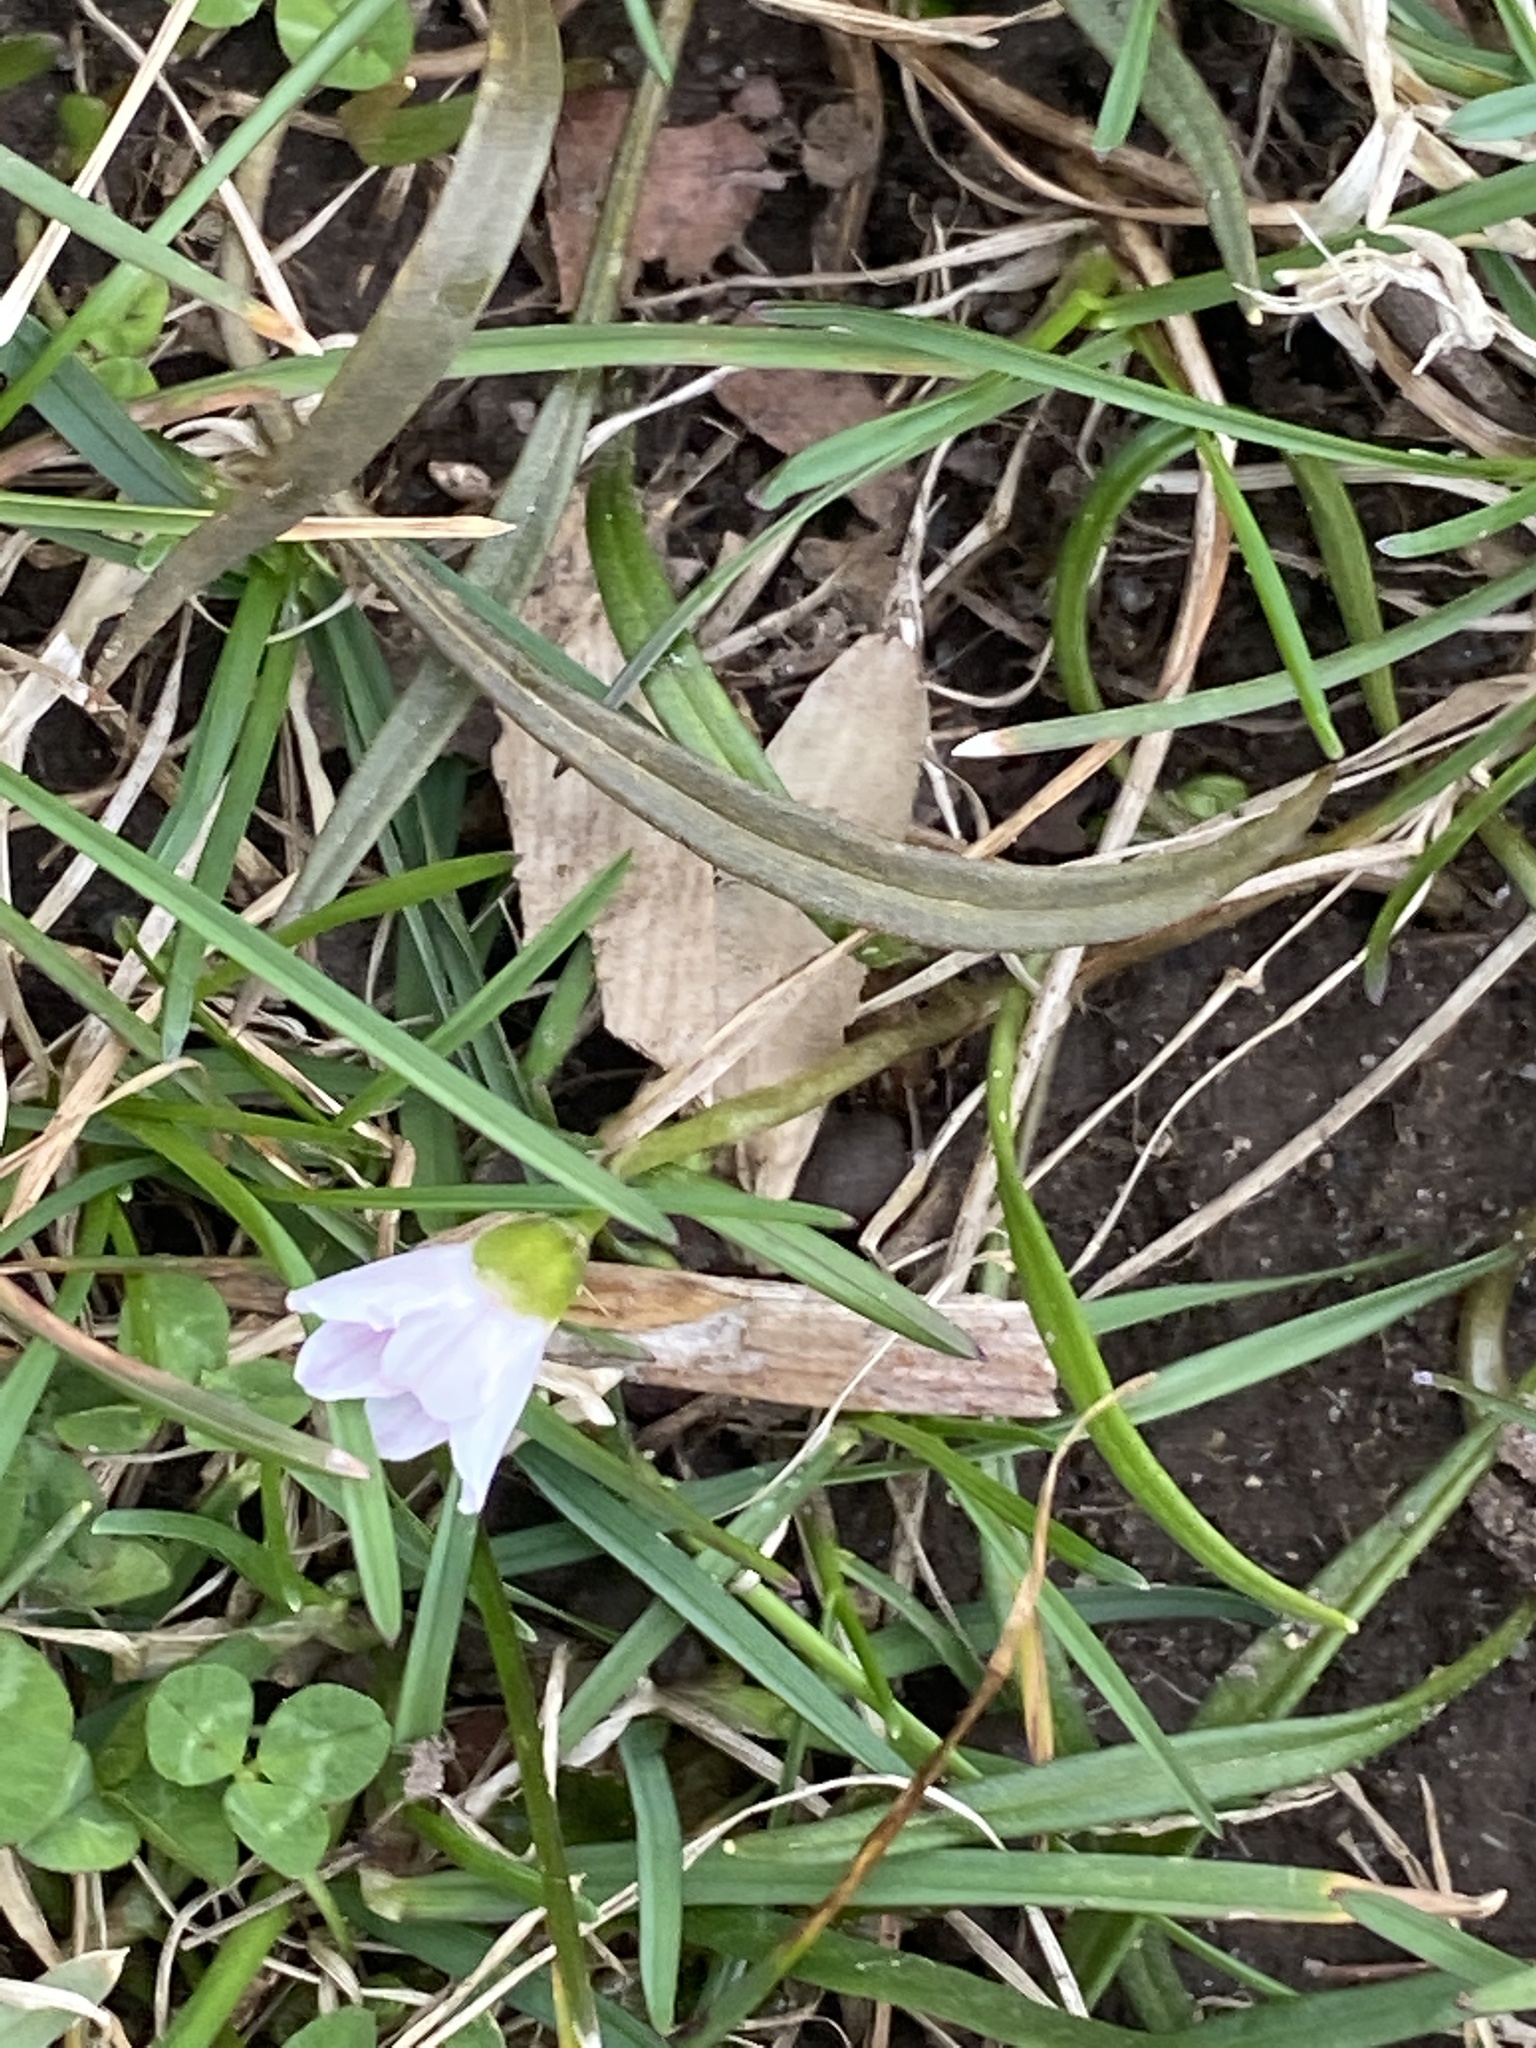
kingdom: Plantae
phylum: Tracheophyta
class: Magnoliopsida
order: Caryophyllales
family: Montiaceae
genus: Claytonia
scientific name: Claytonia virginica
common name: Virginia springbeauty
